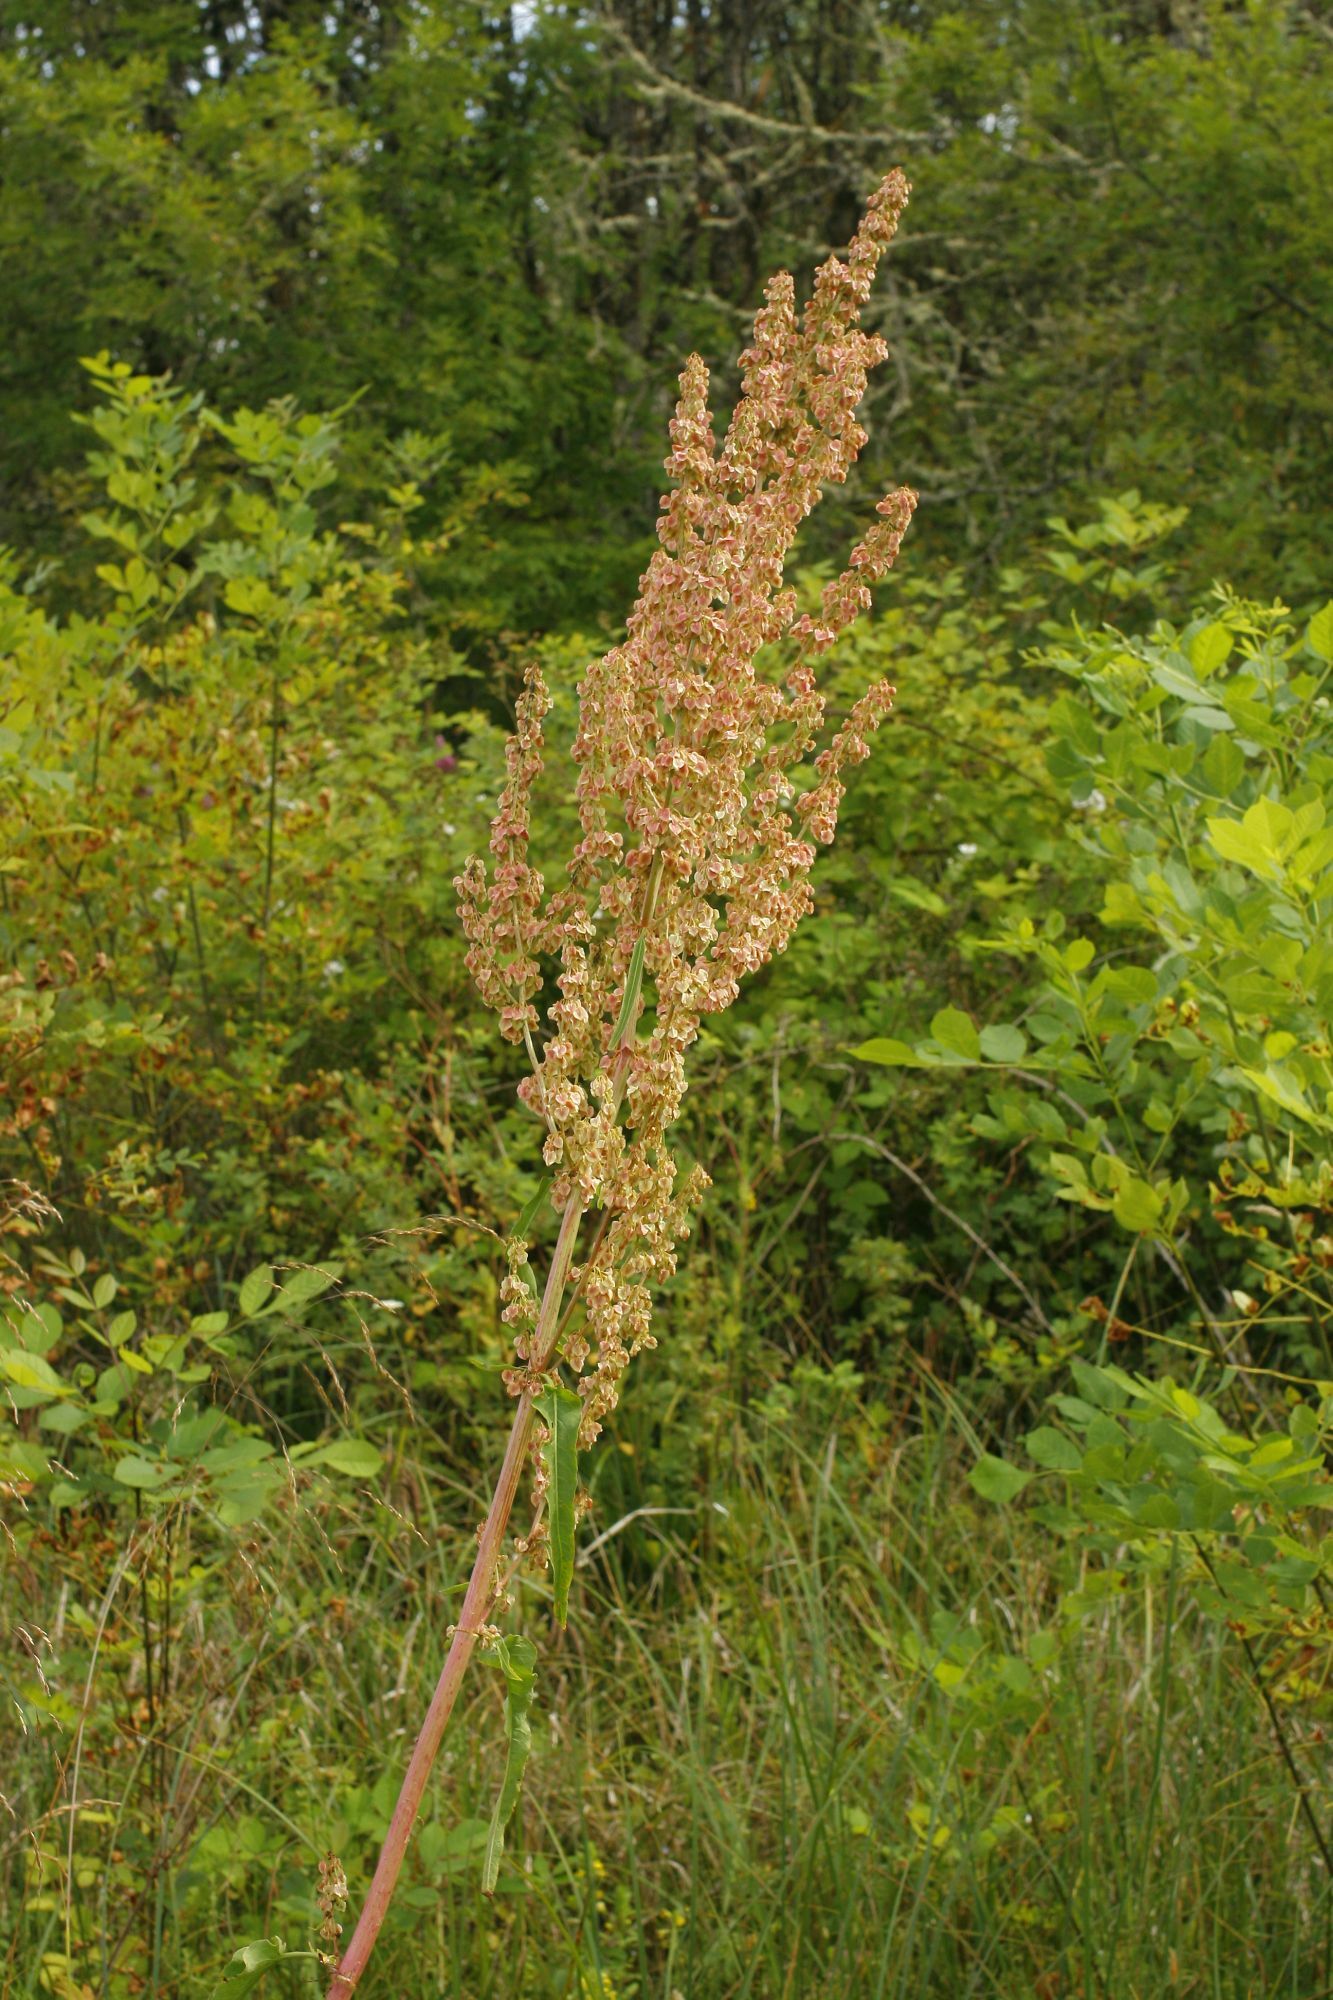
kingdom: Plantae
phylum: Tracheophyta
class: Magnoliopsida
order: Caryophyllales
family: Polygonaceae
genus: Rumex
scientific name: Rumex occidentalis
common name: Western dock
